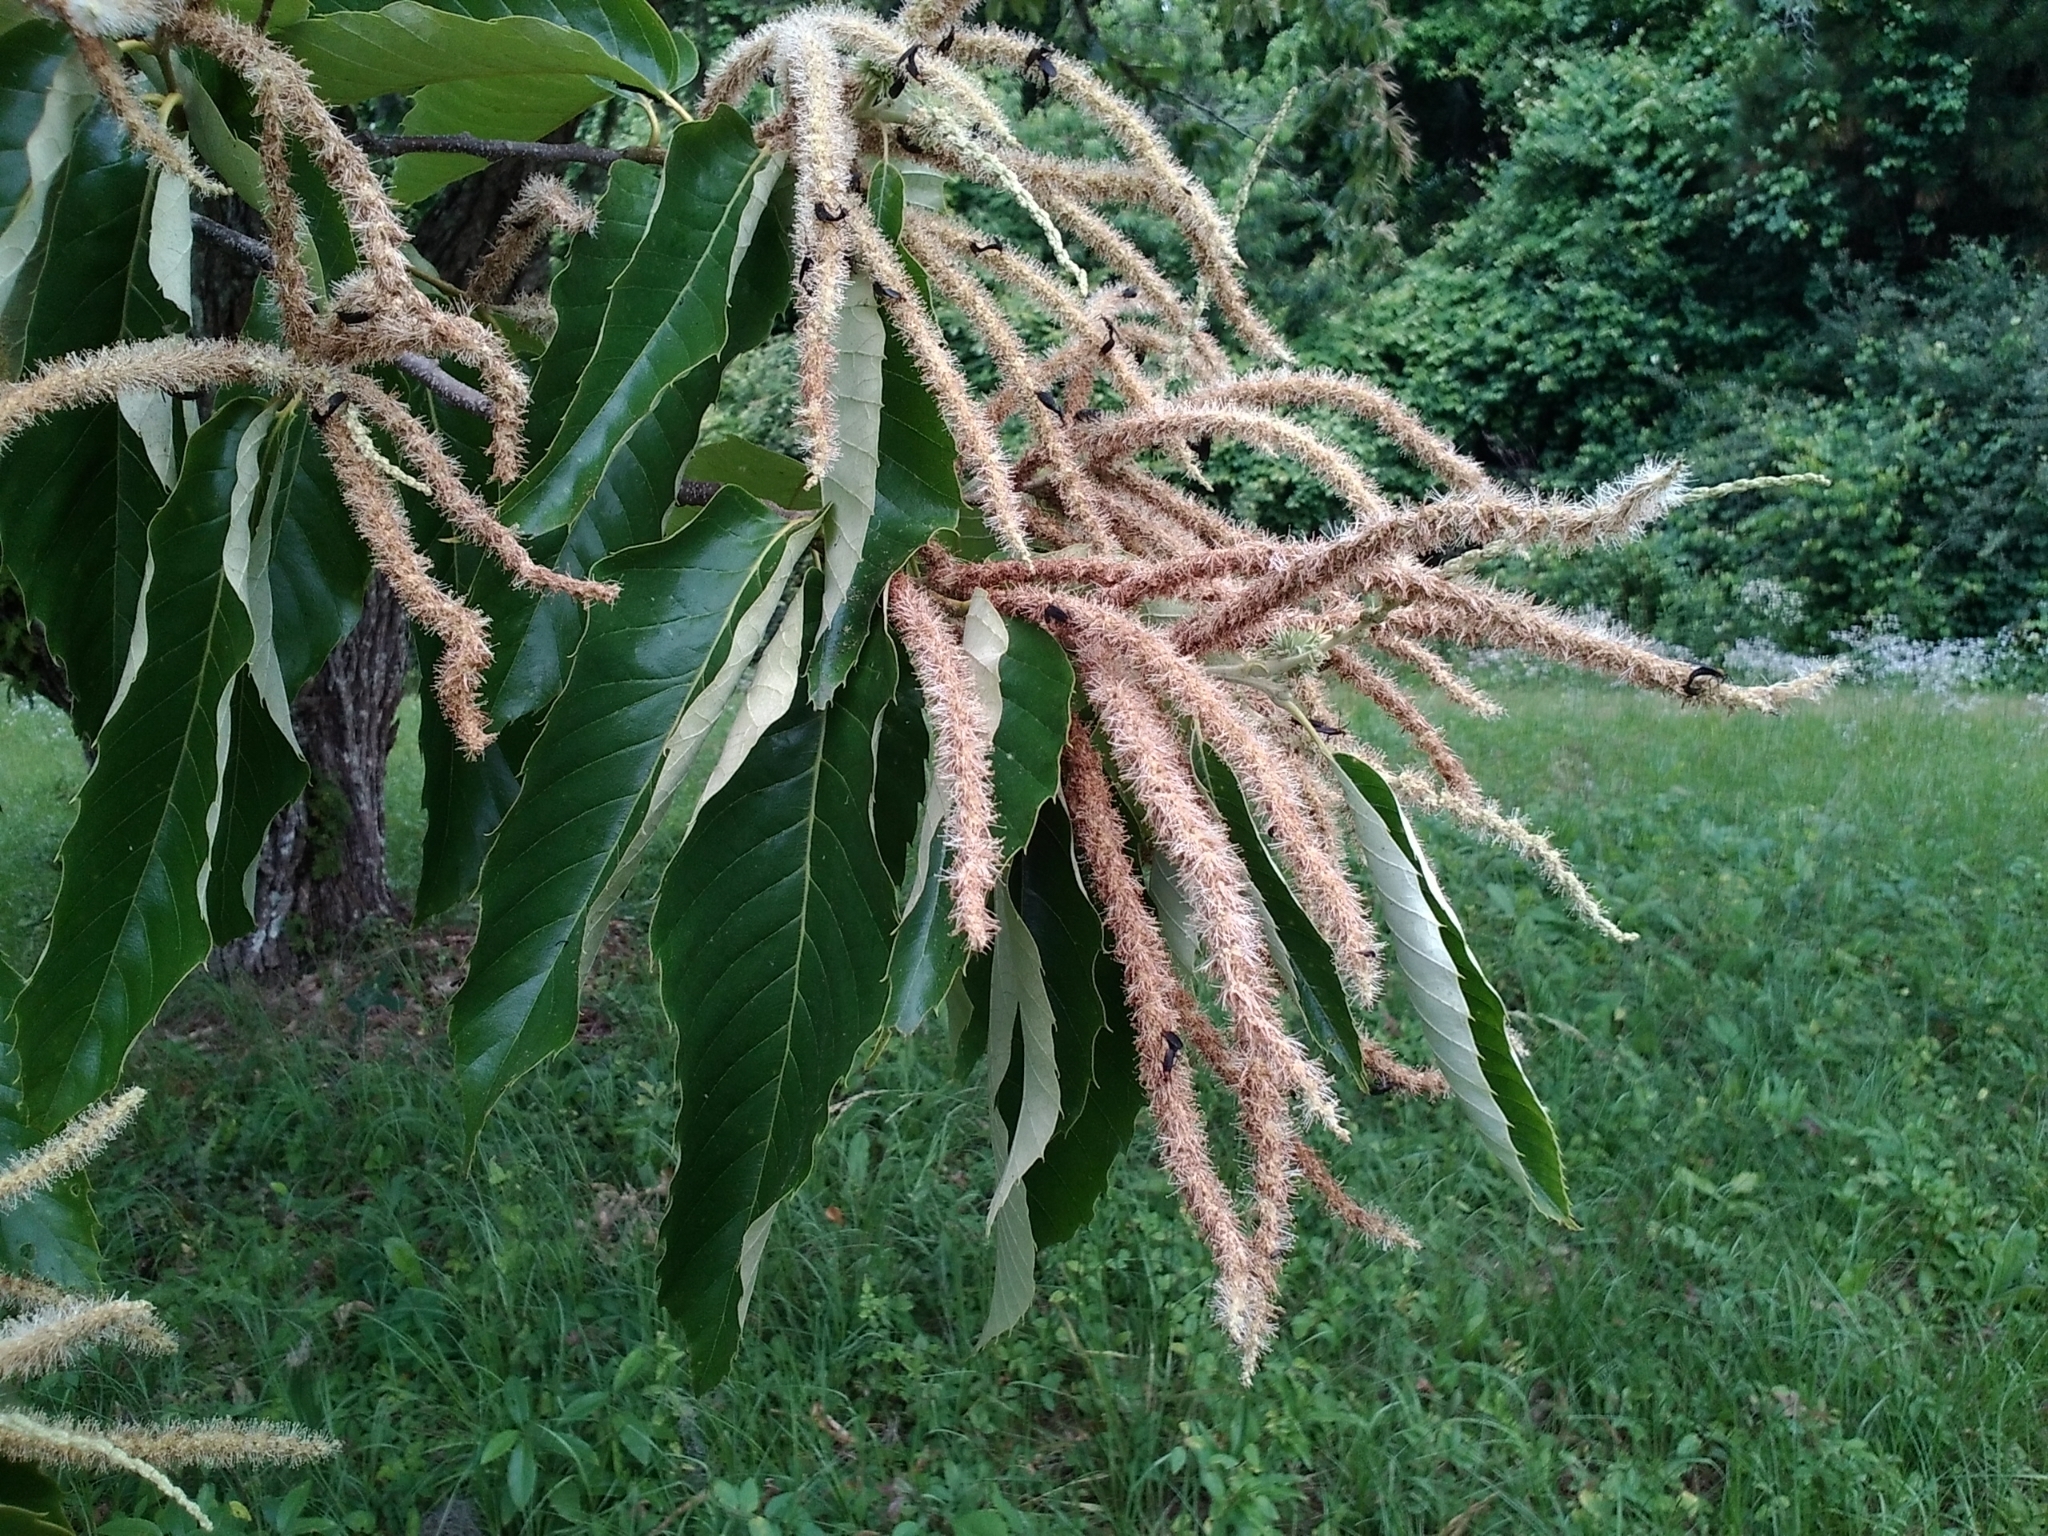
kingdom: Plantae
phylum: Tracheophyta
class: Magnoliopsida
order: Fagales
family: Fagaceae
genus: Castanea
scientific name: Castanea mollissima
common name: Chinese chestnut
